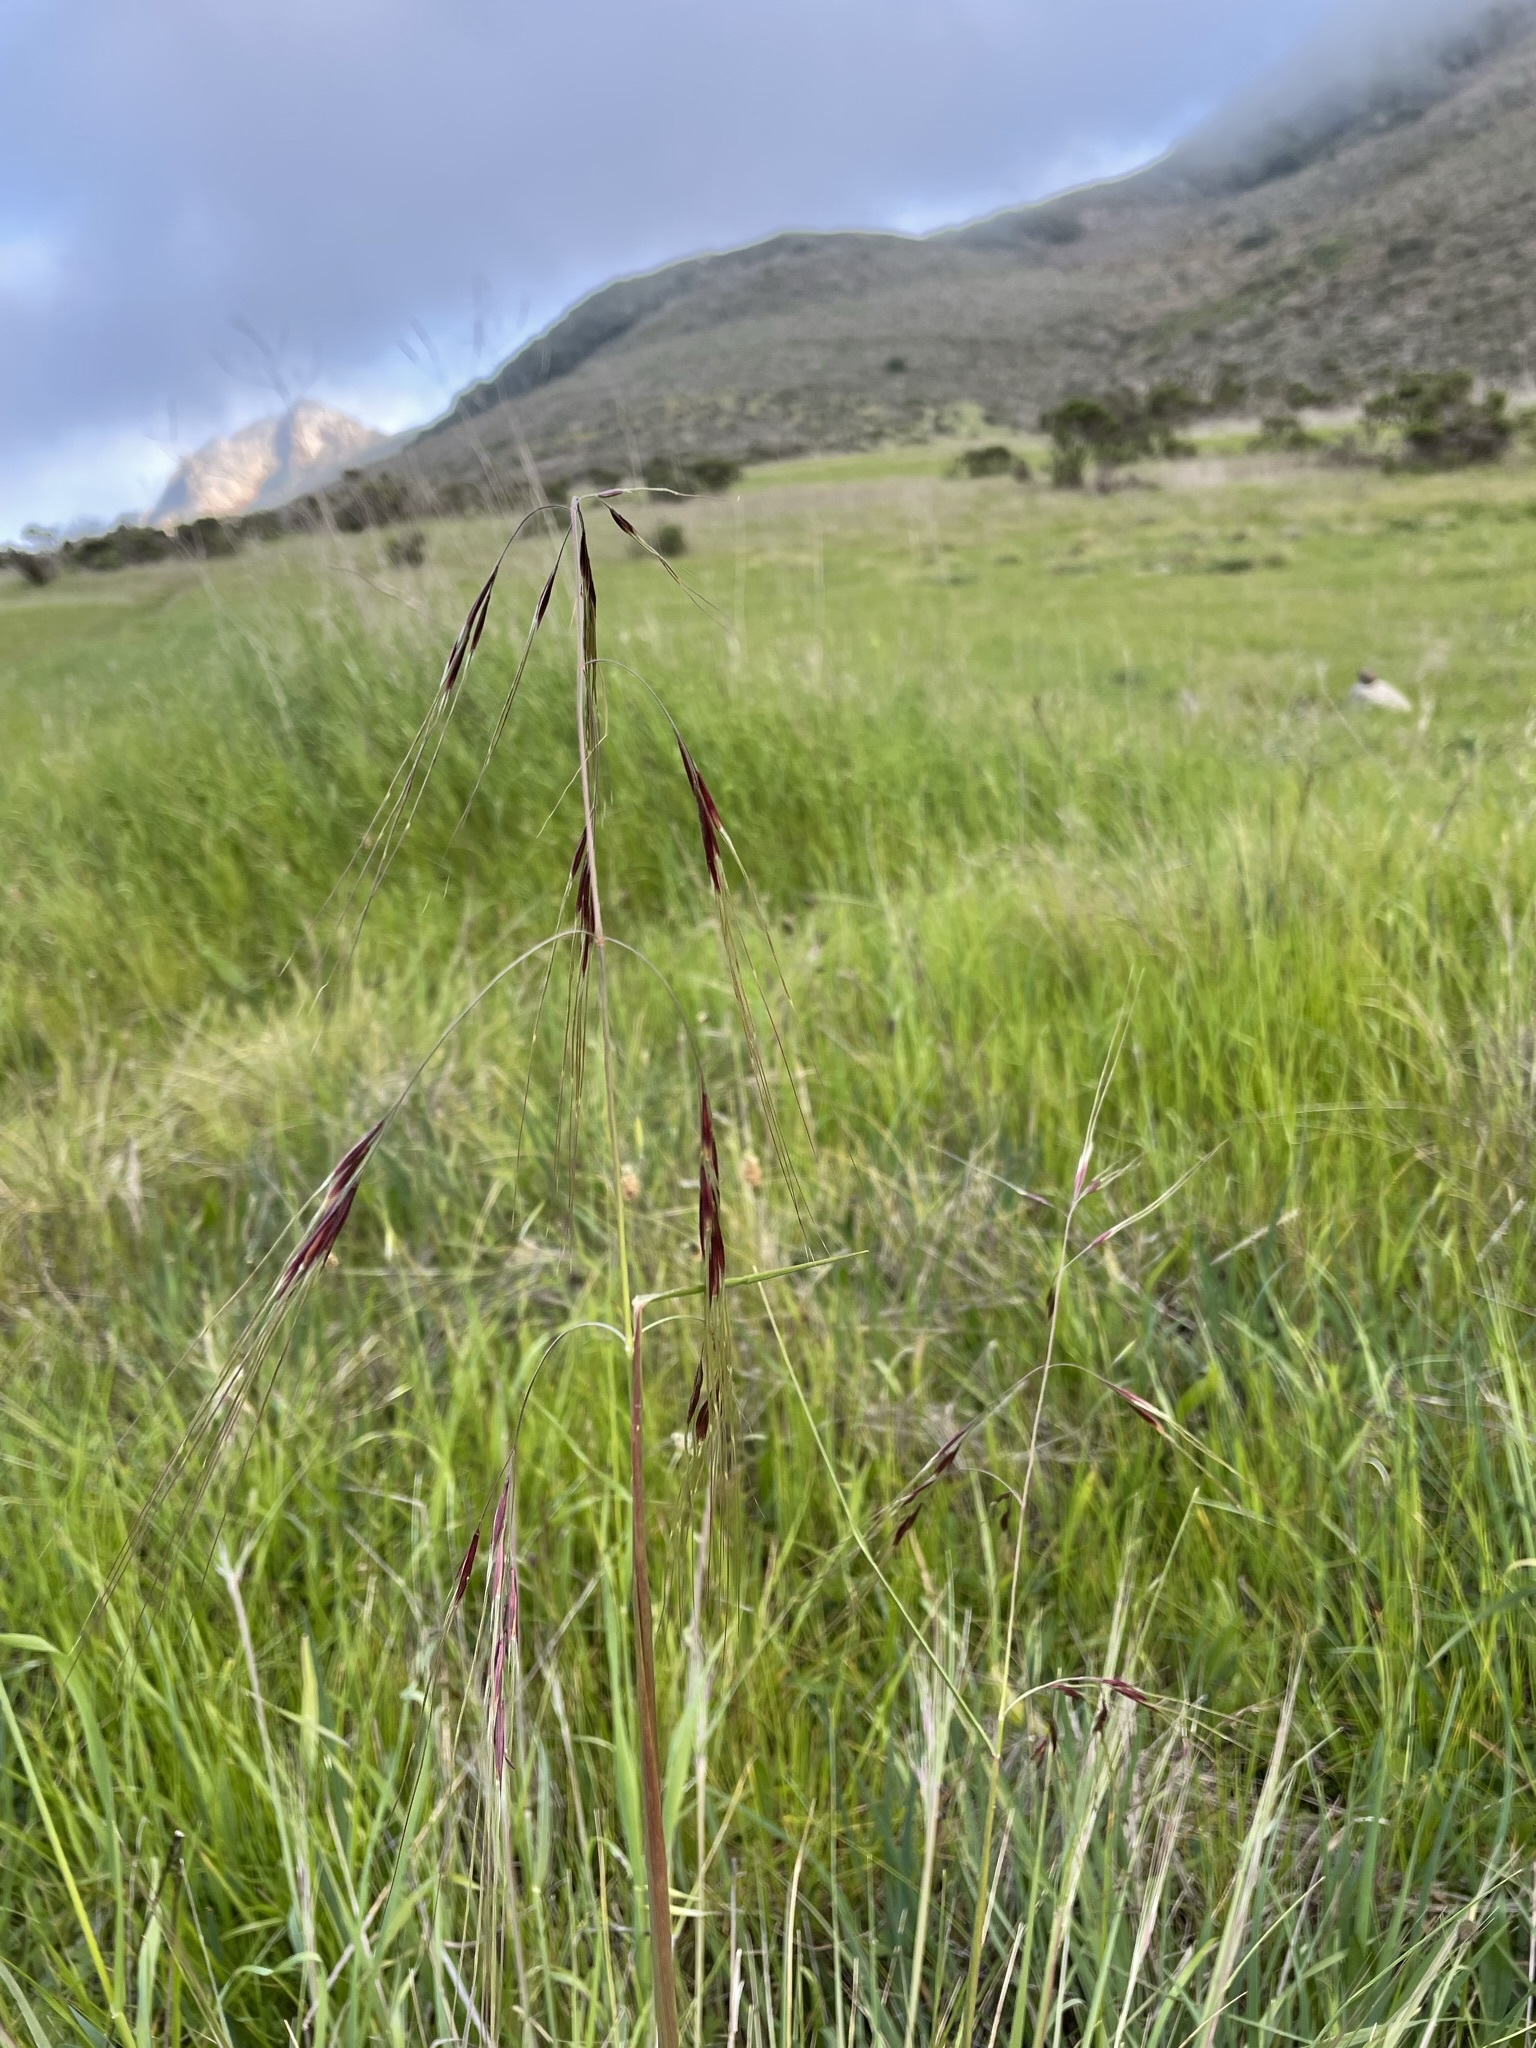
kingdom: Plantae
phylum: Tracheophyta
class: Liliopsida
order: Poales
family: Poaceae
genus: Nassella
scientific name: Nassella pulchra
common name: Purple needlegrass
